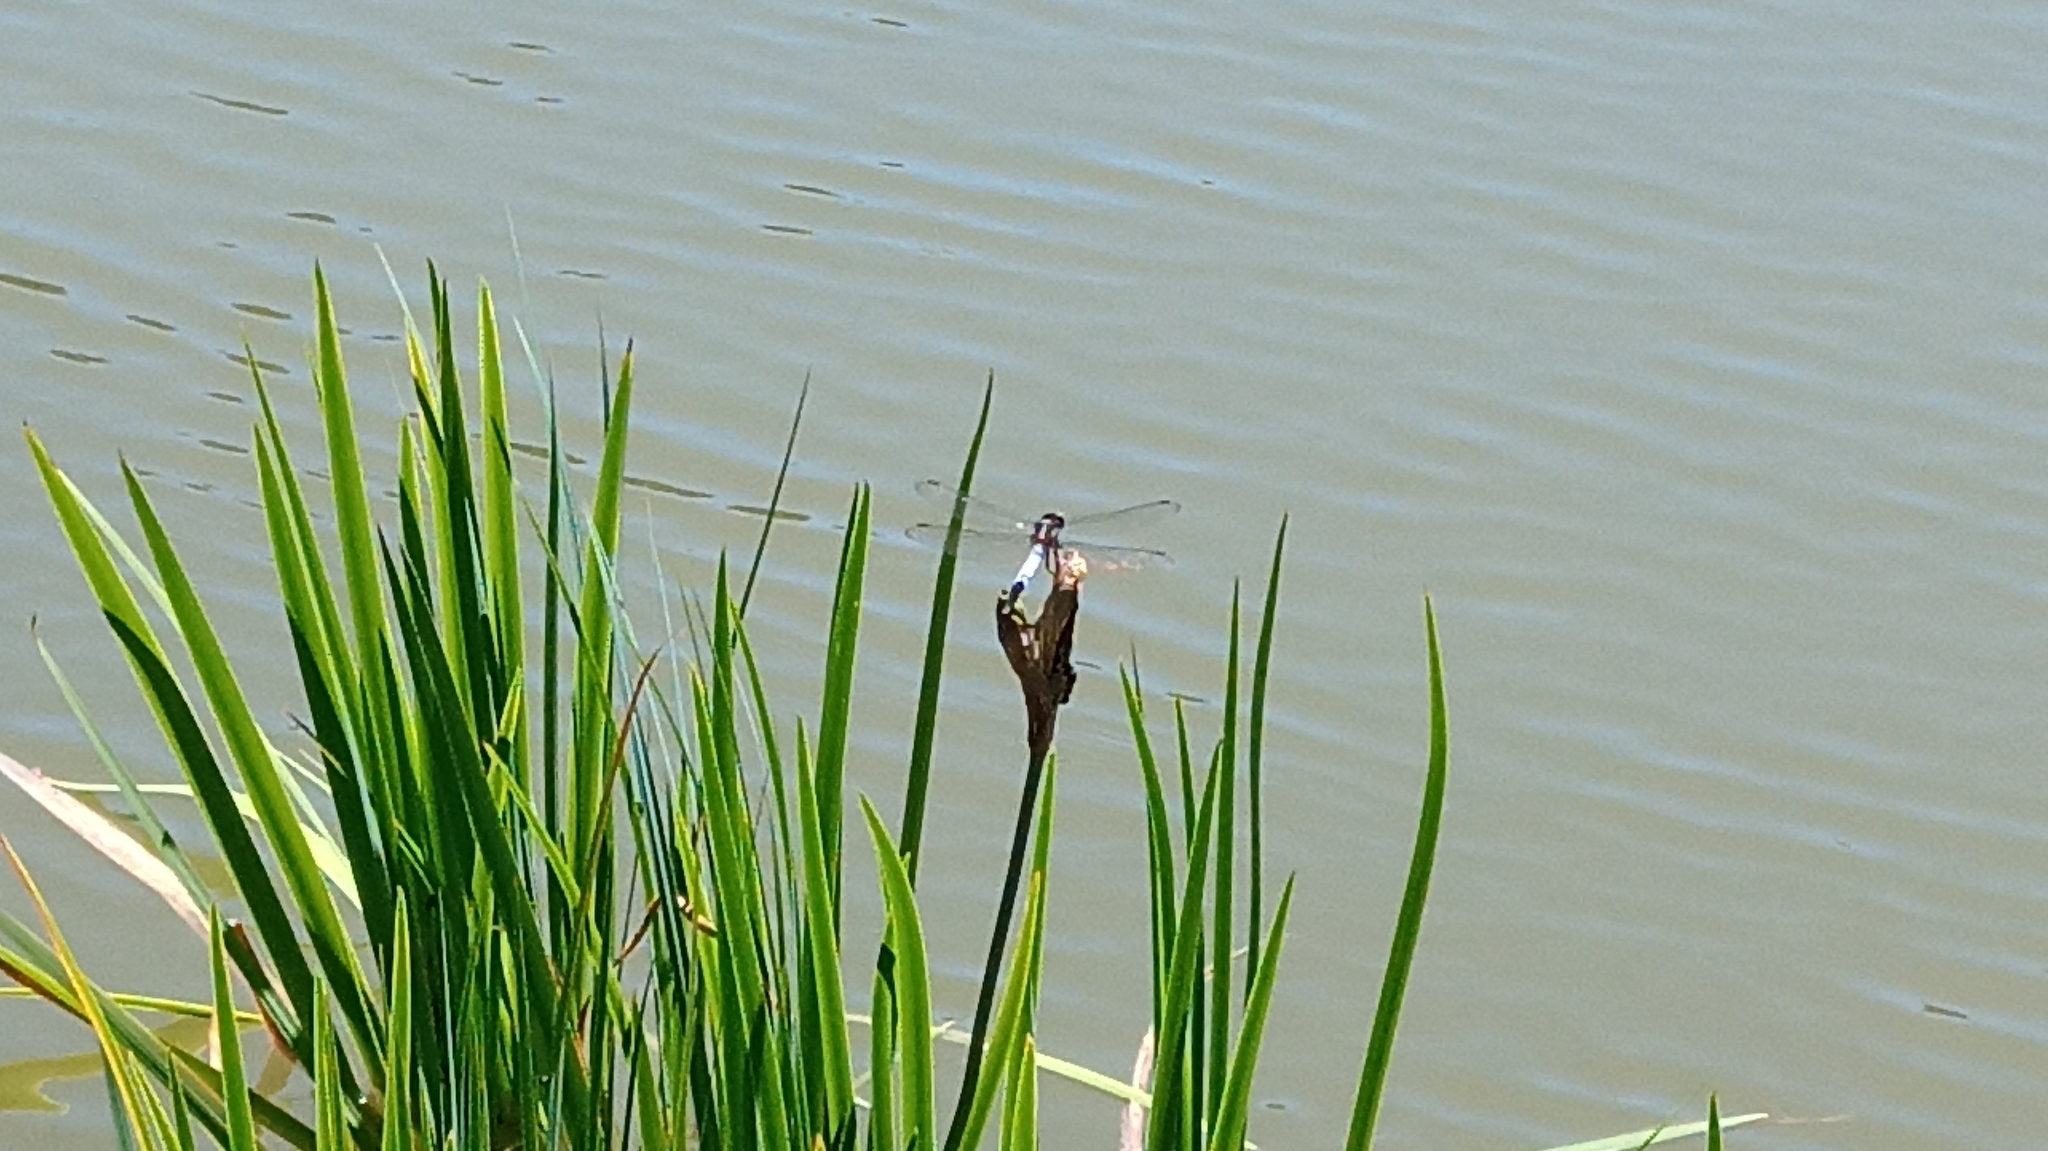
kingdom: Animalia
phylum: Arthropoda
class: Insecta
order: Odonata
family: Libellulidae
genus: Orthetrum
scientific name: Orthetrum albistylum
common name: White-tailed skimmer
